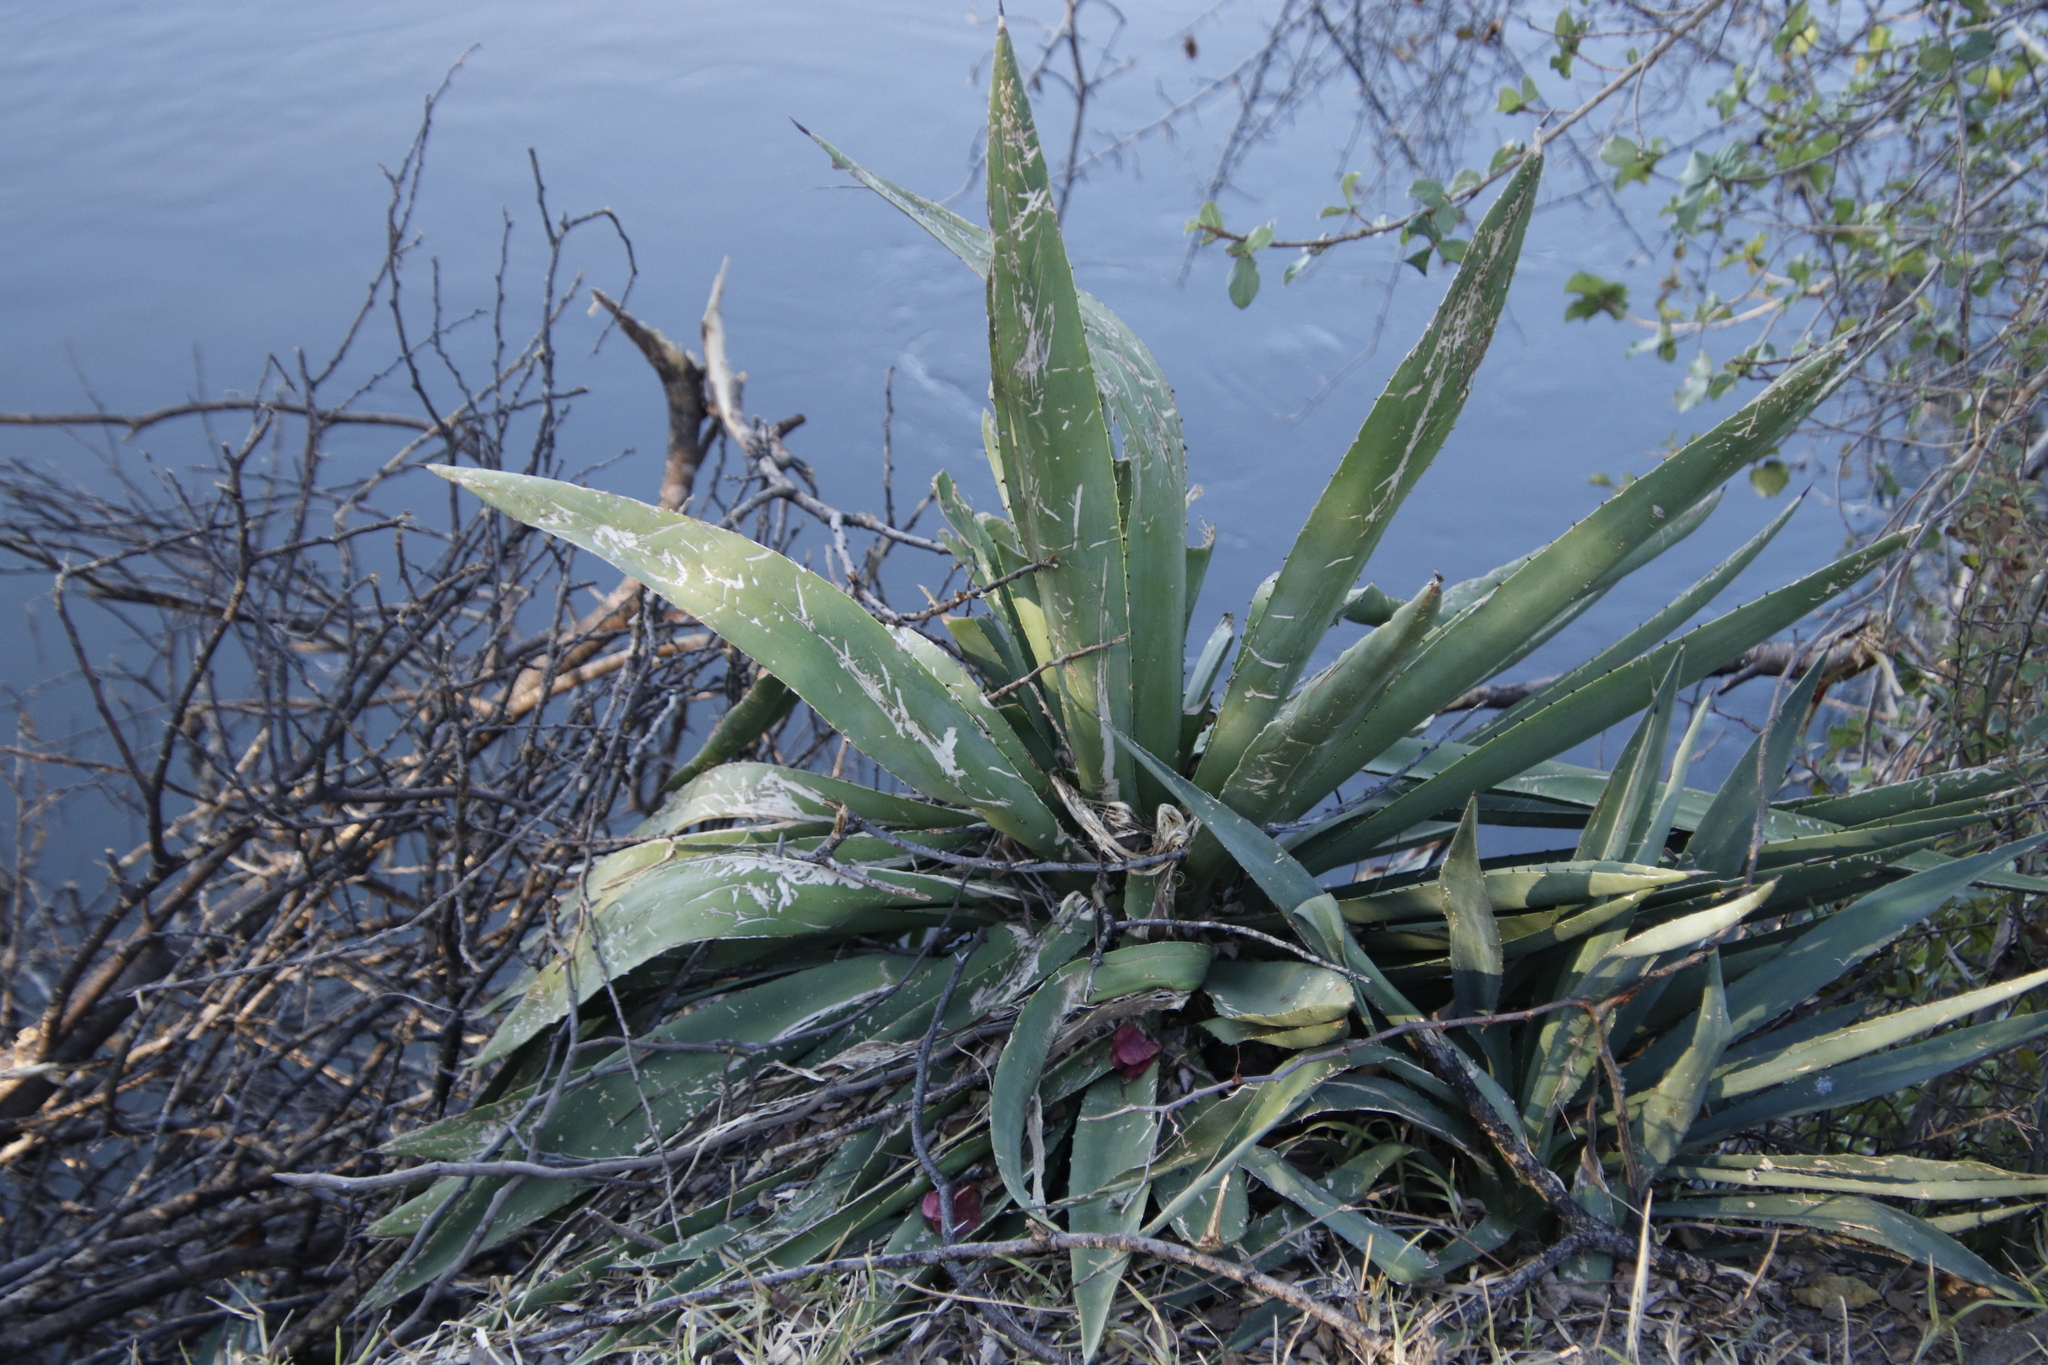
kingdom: Plantae
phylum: Tracheophyta
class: Liliopsida
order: Asparagales
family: Asparagaceae
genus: Agave
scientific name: Agave angustifolia
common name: Mescal agave
